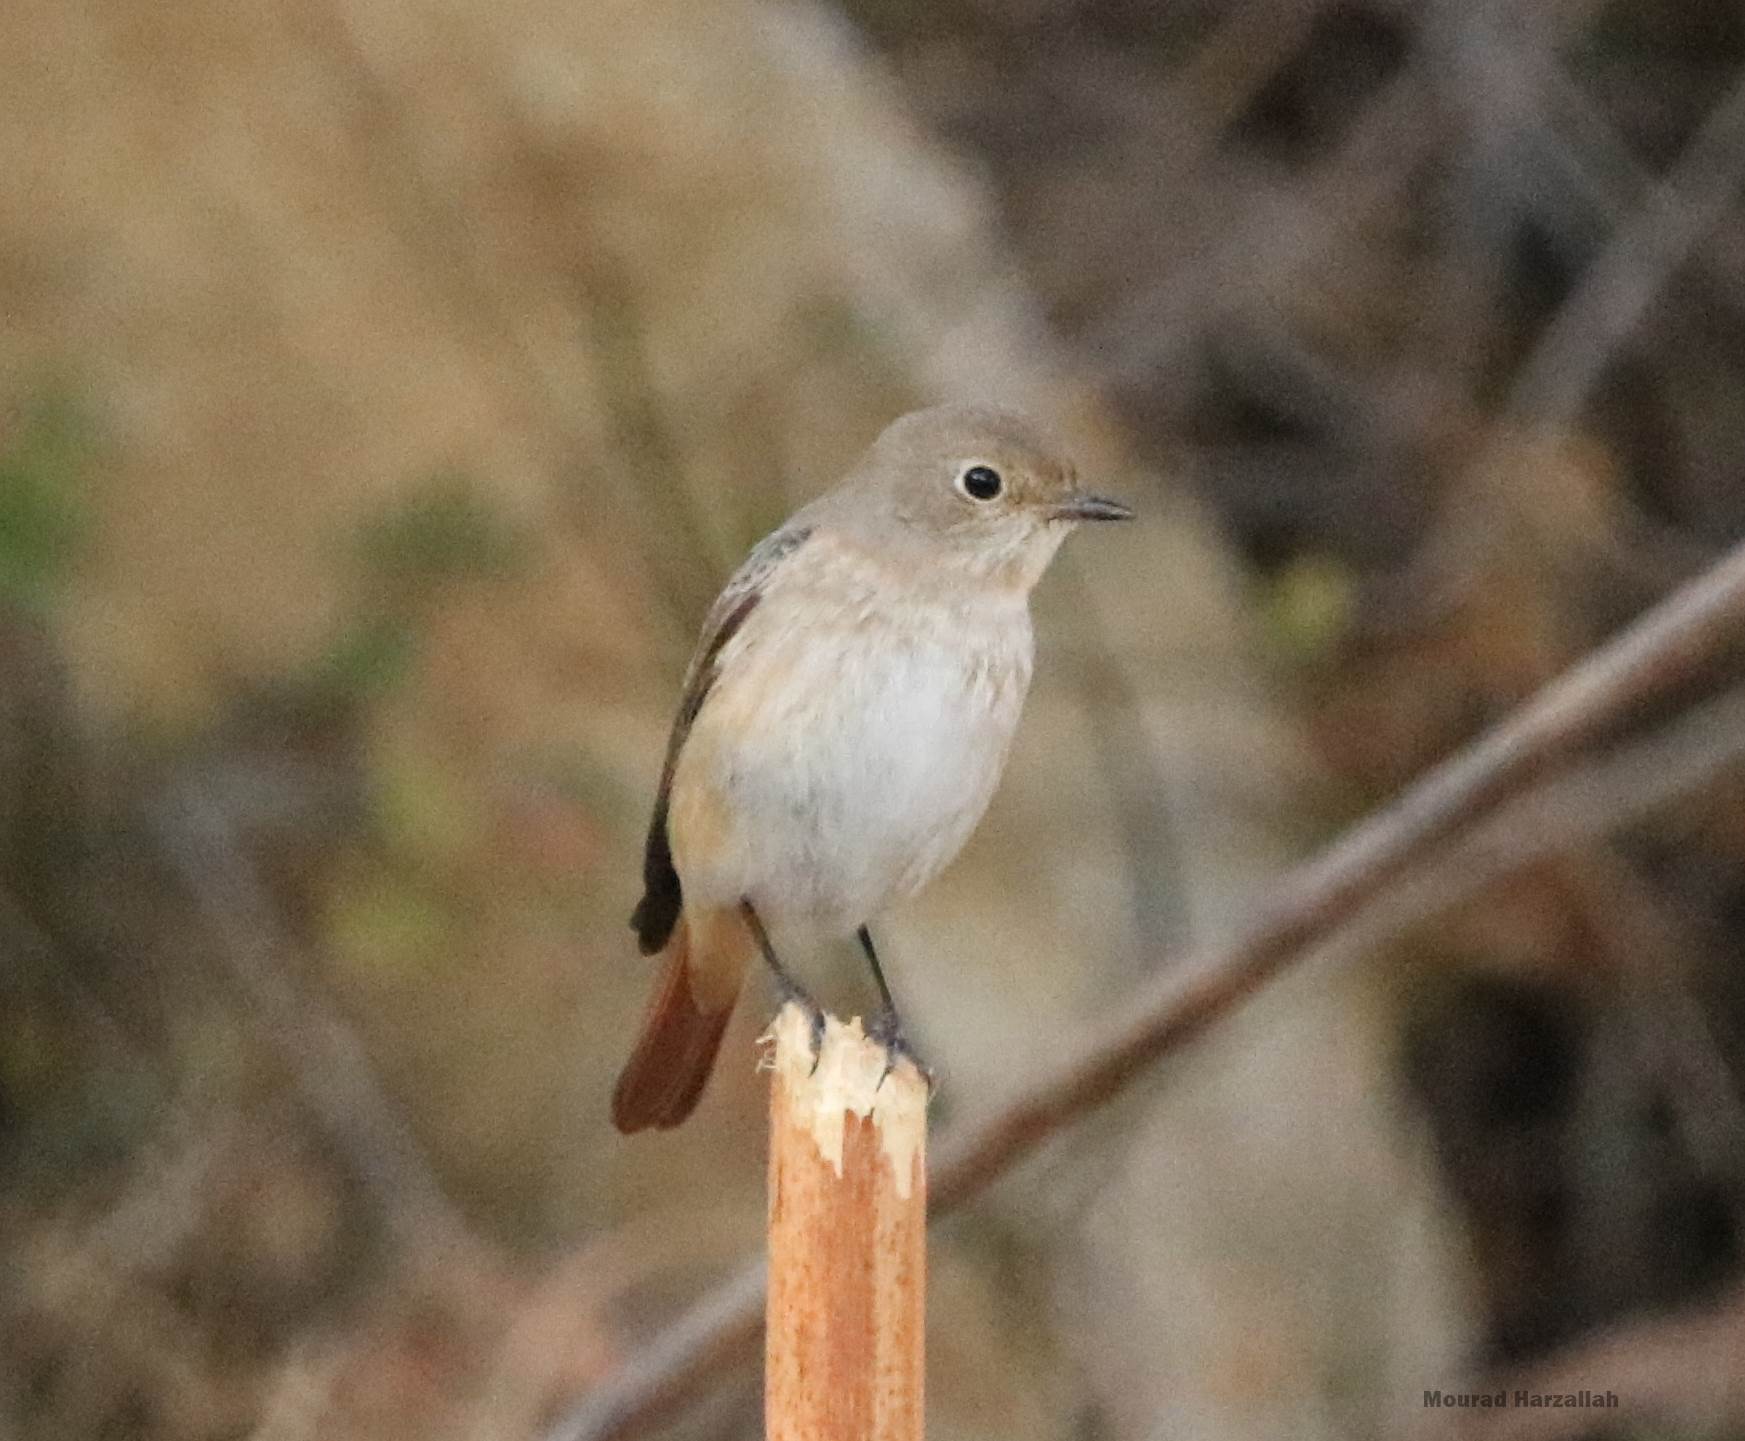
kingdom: Animalia
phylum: Chordata
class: Aves
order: Passeriformes
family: Muscicapidae
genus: Phoenicurus
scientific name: Phoenicurus phoenicurus
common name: Common redstart
